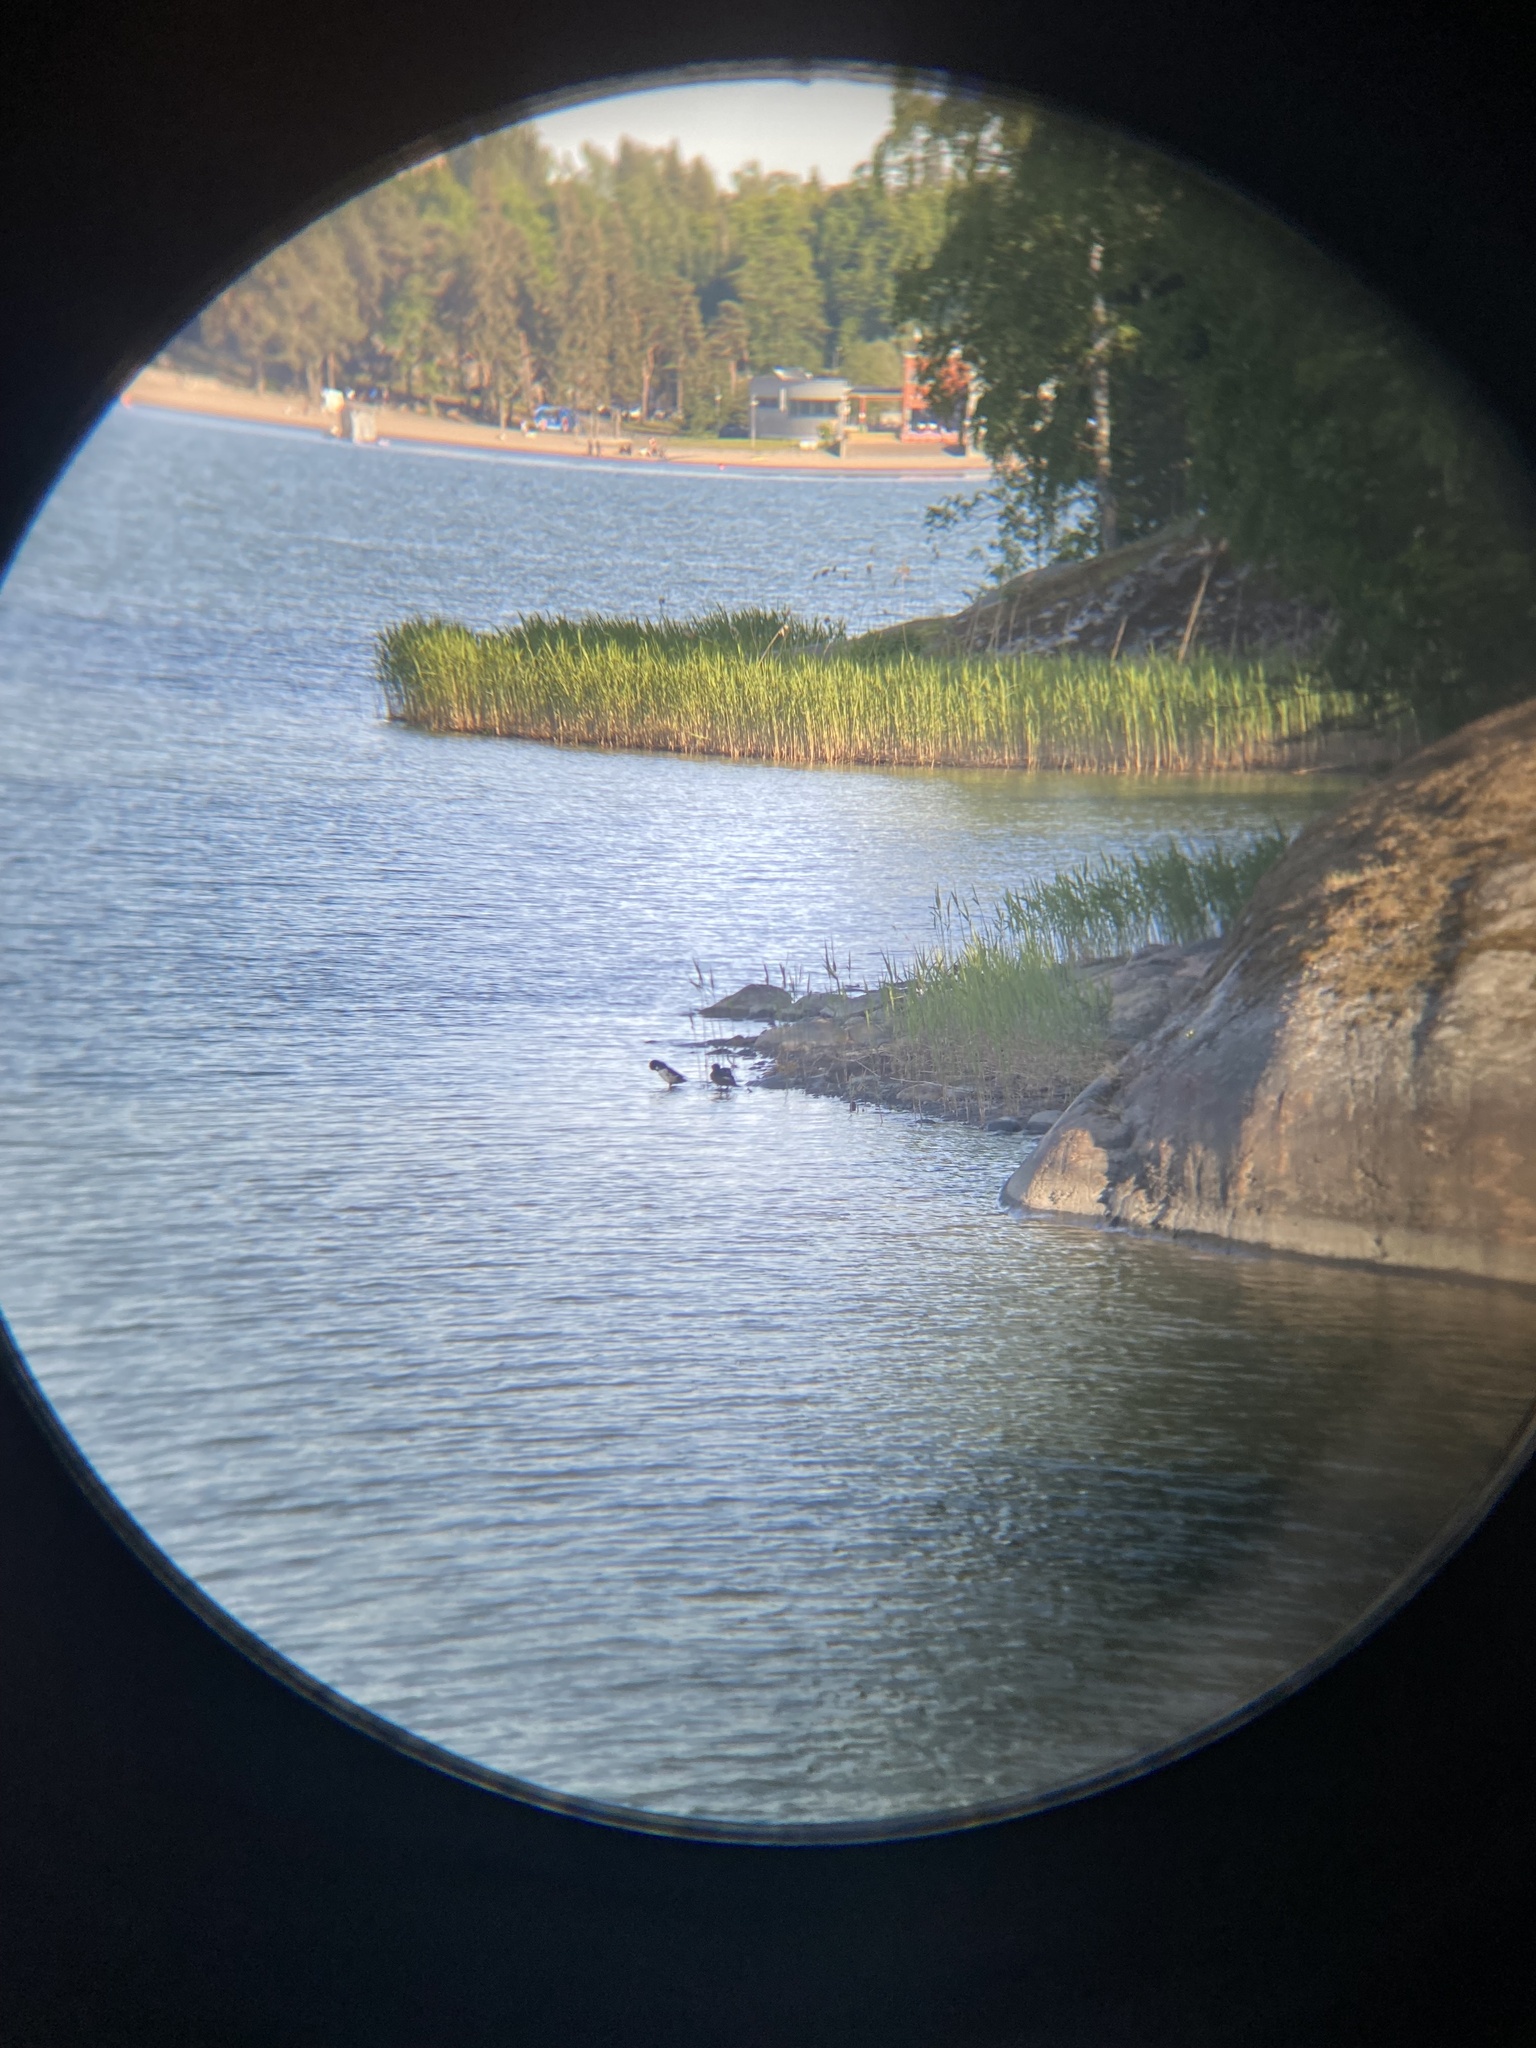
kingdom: Animalia
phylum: Chordata
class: Aves
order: Anseriformes
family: Anatidae
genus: Aythya
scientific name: Aythya fuligula
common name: Tufted duck
